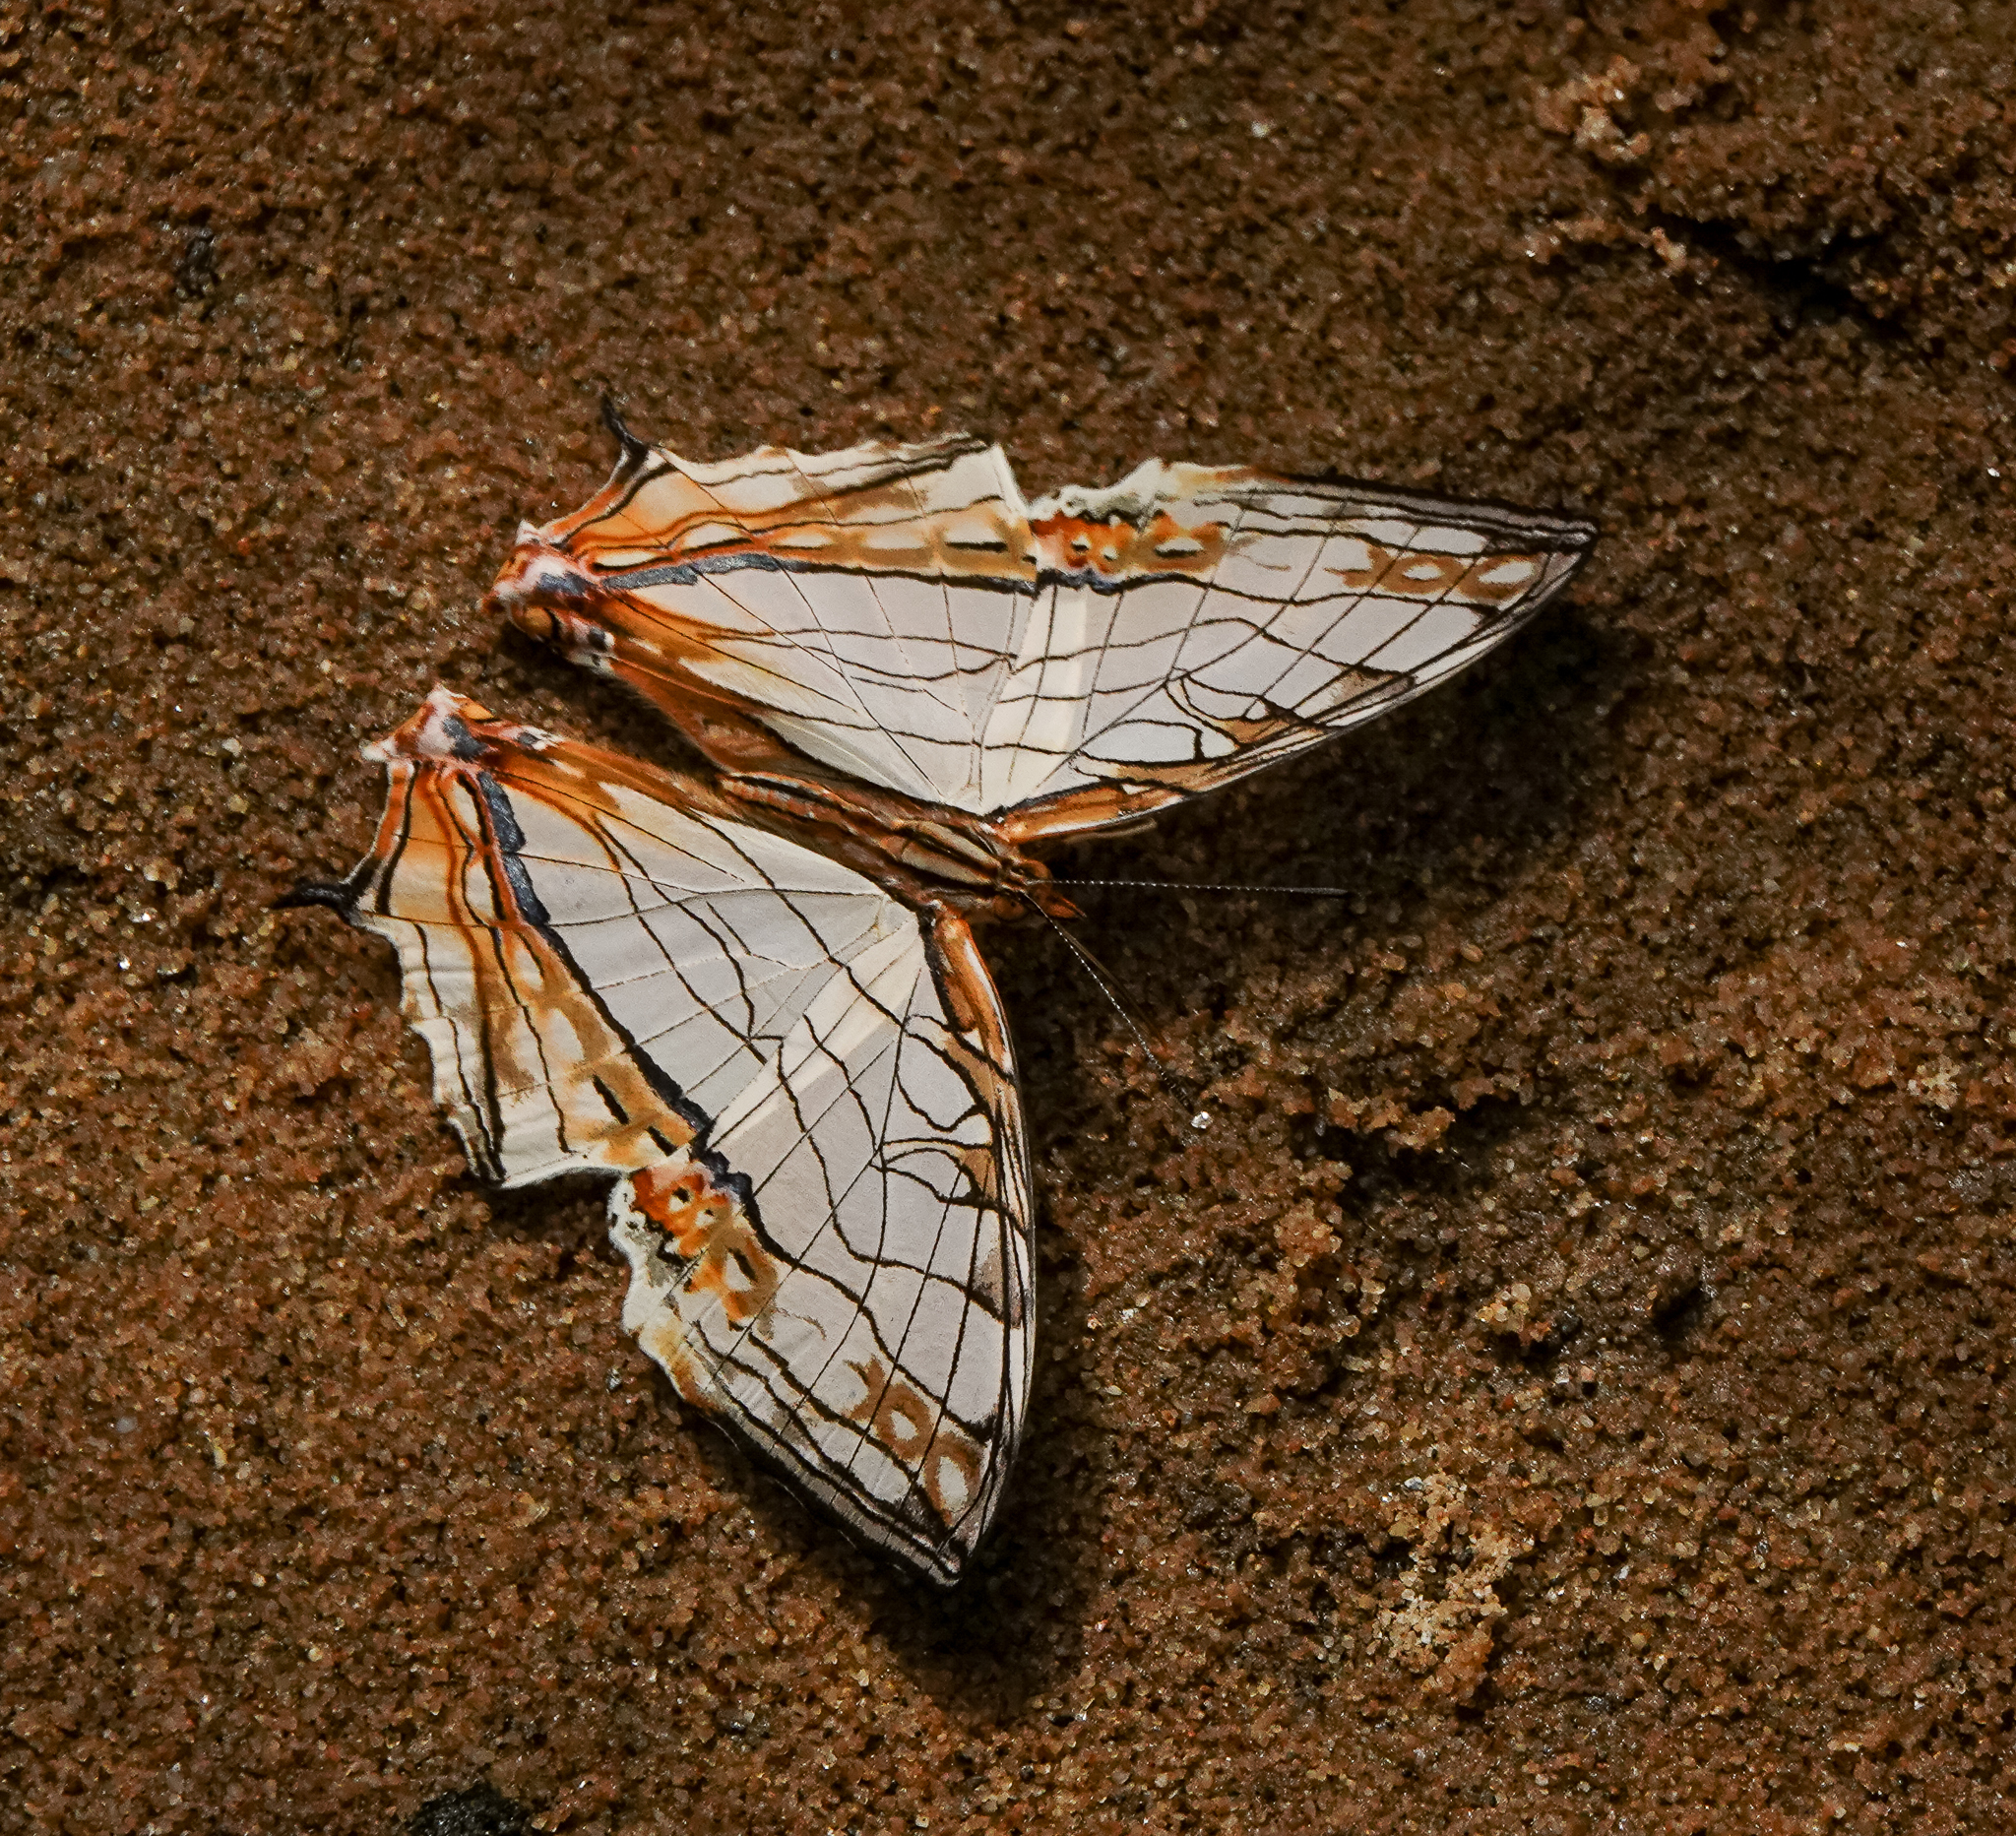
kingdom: Animalia
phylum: Arthropoda
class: Insecta
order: Lepidoptera
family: Nymphalidae
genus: Cyrestis
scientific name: Cyrestis thyodamas
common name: Common mapwing
